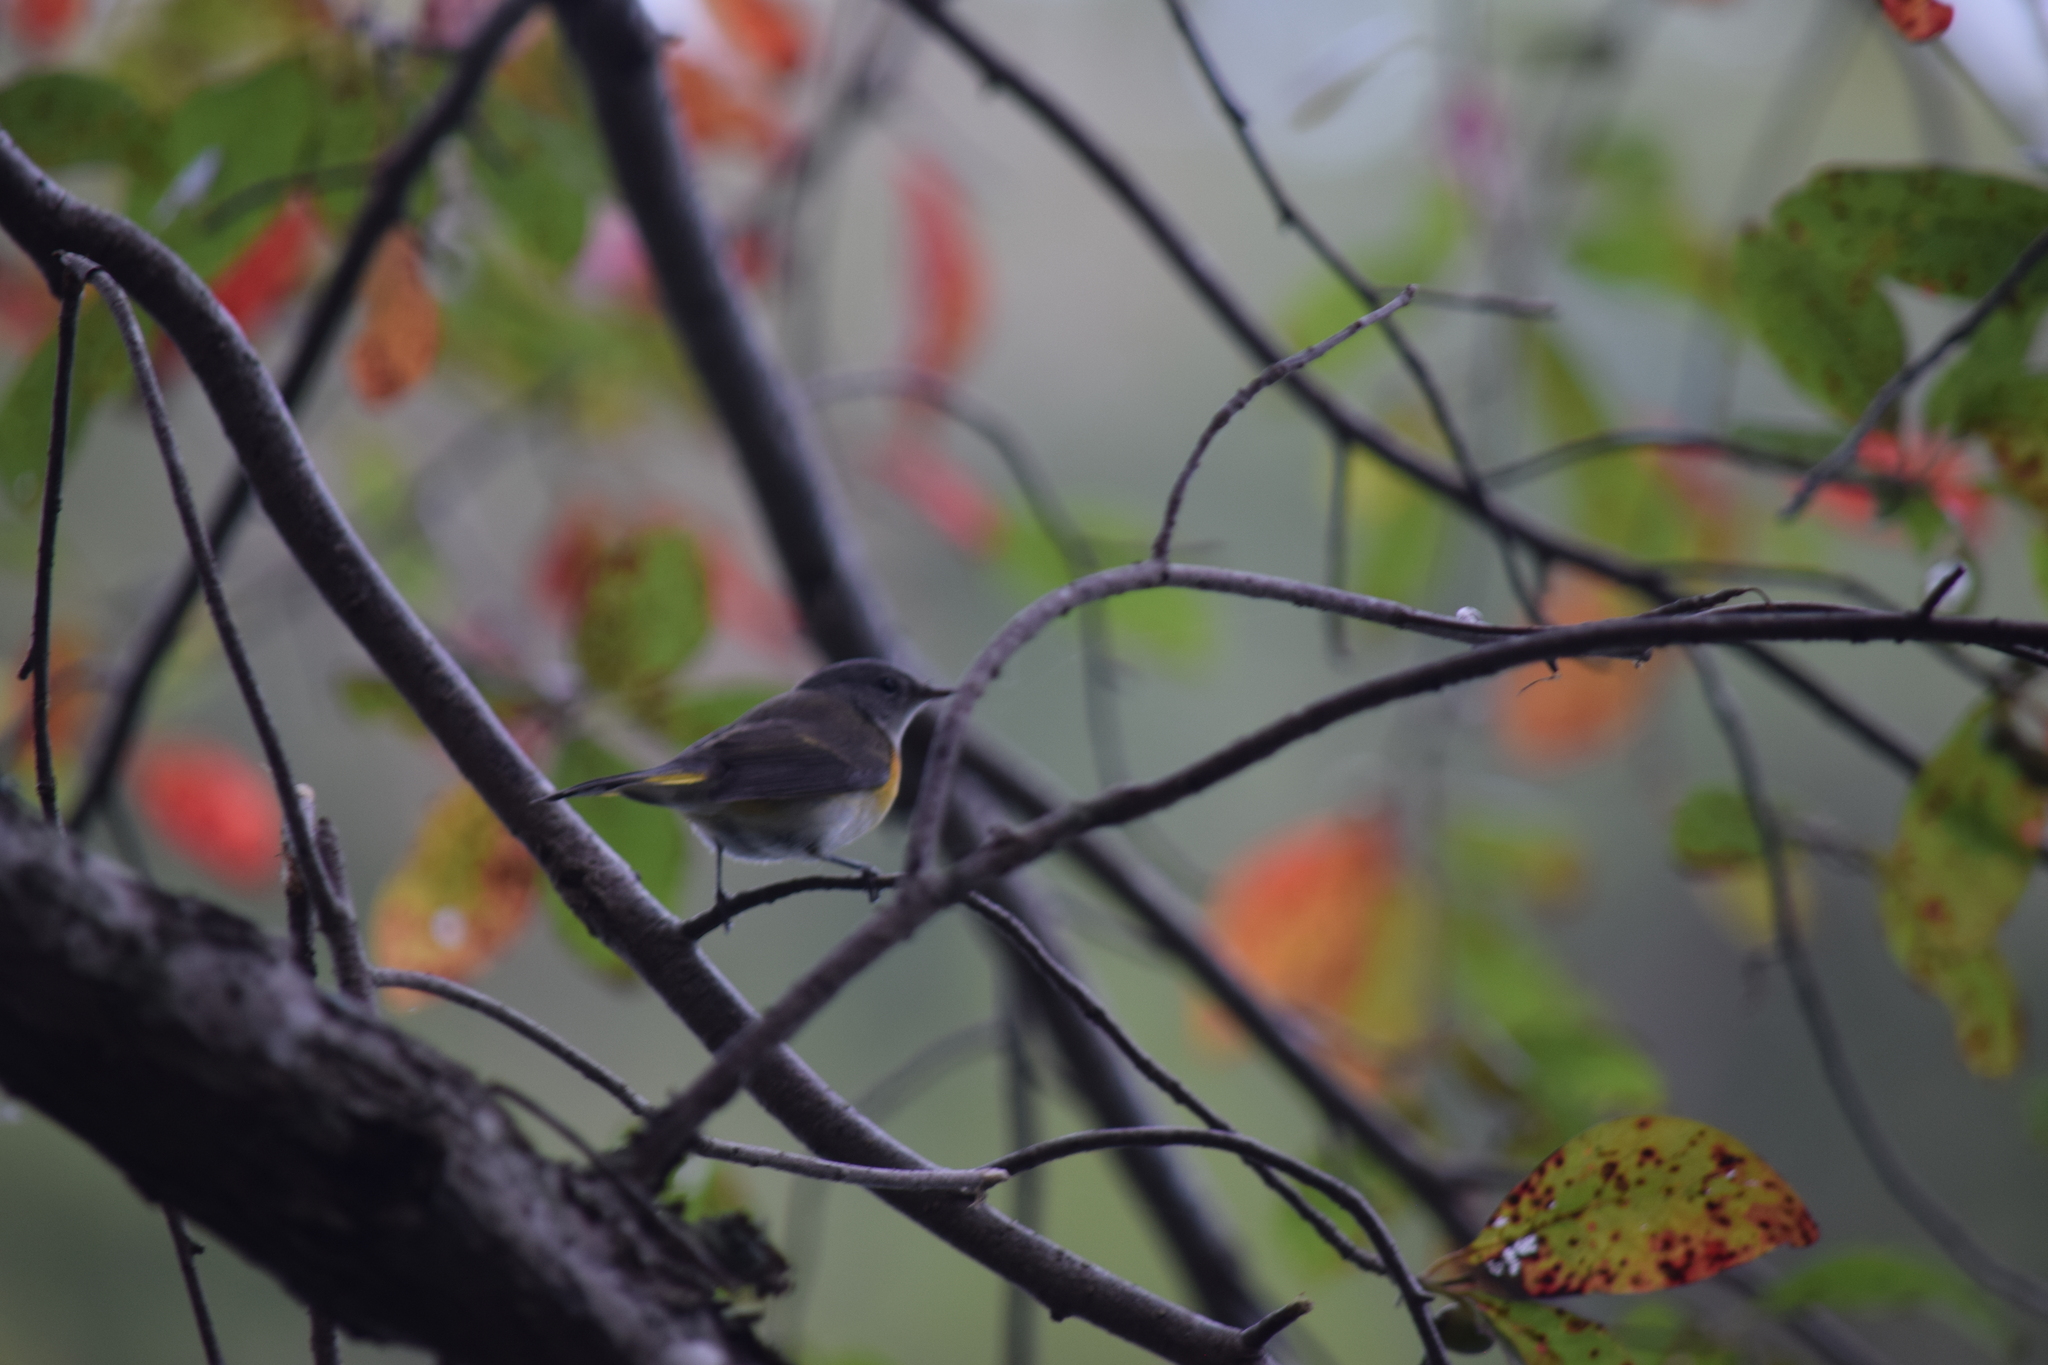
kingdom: Animalia
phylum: Chordata
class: Aves
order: Passeriformes
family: Parulidae
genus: Setophaga
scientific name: Setophaga ruticilla
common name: American redstart
